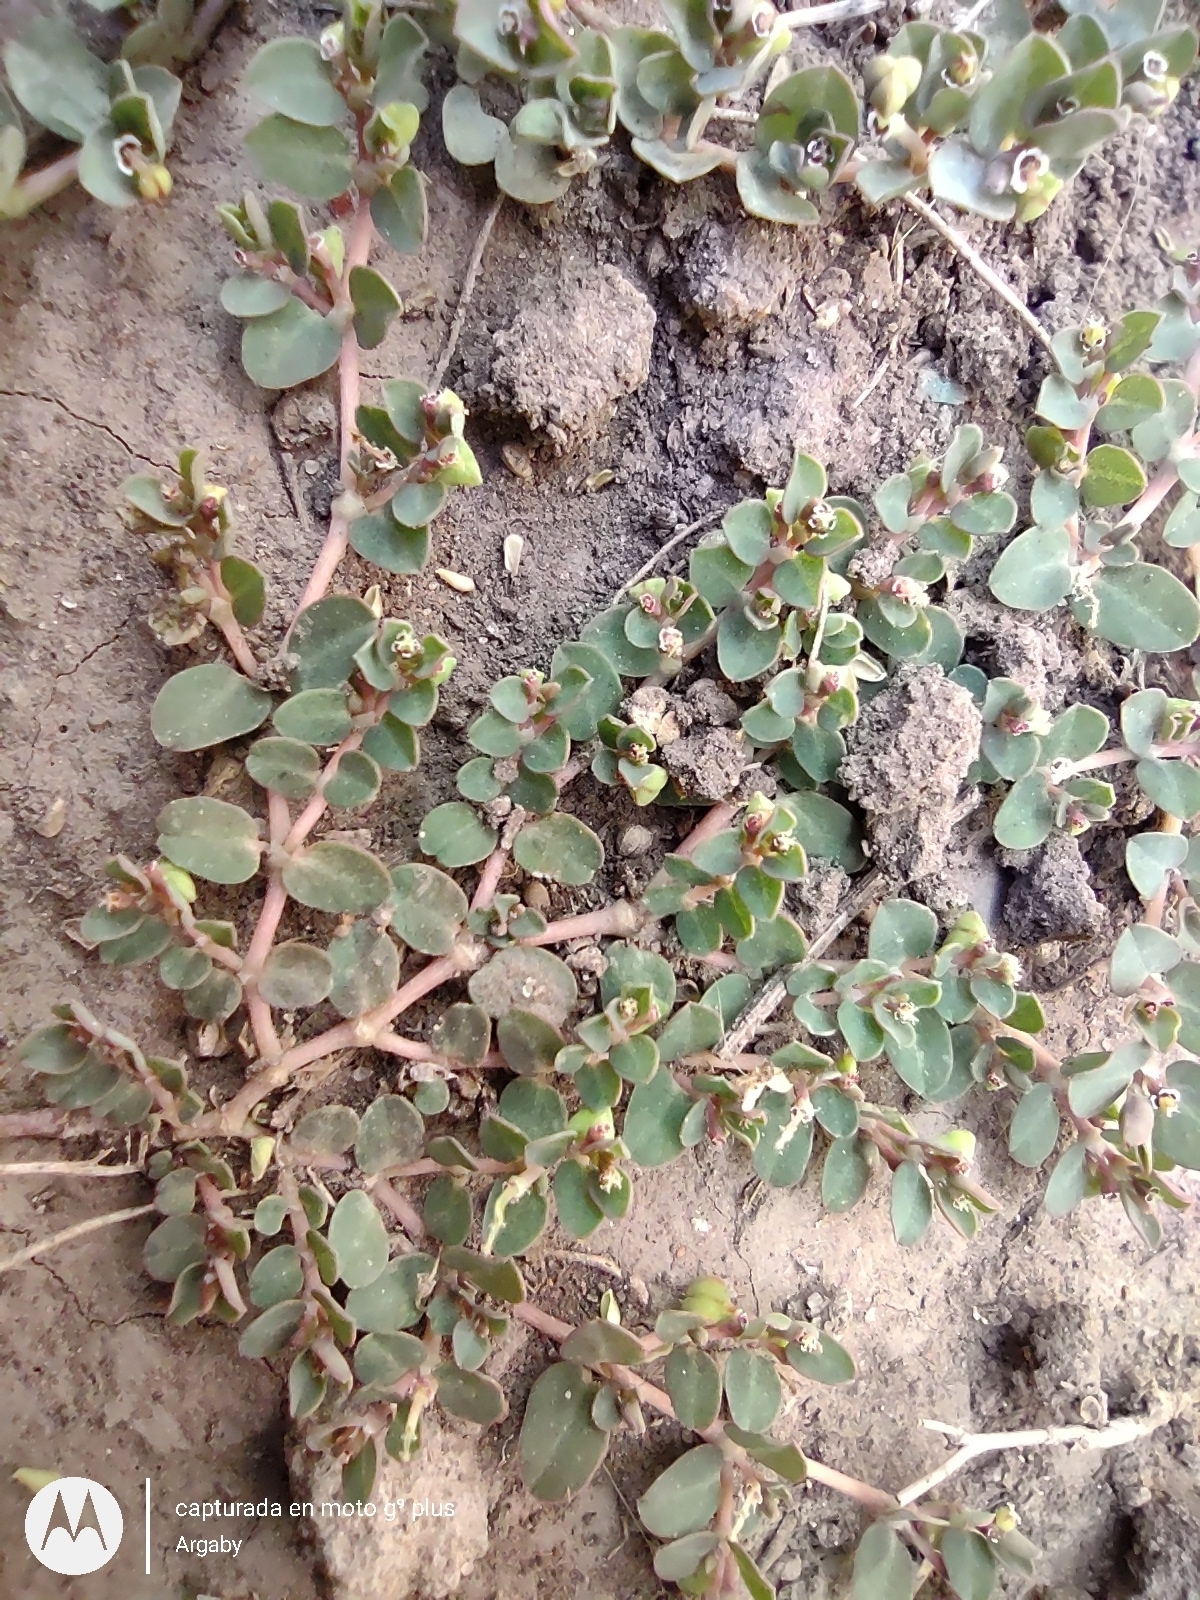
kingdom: Plantae
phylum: Tracheophyta
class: Magnoliopsida
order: Malpighiales
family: Euphorbiaceae
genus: Euphorbia
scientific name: Euphorbia serpens
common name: Matted sandmat
